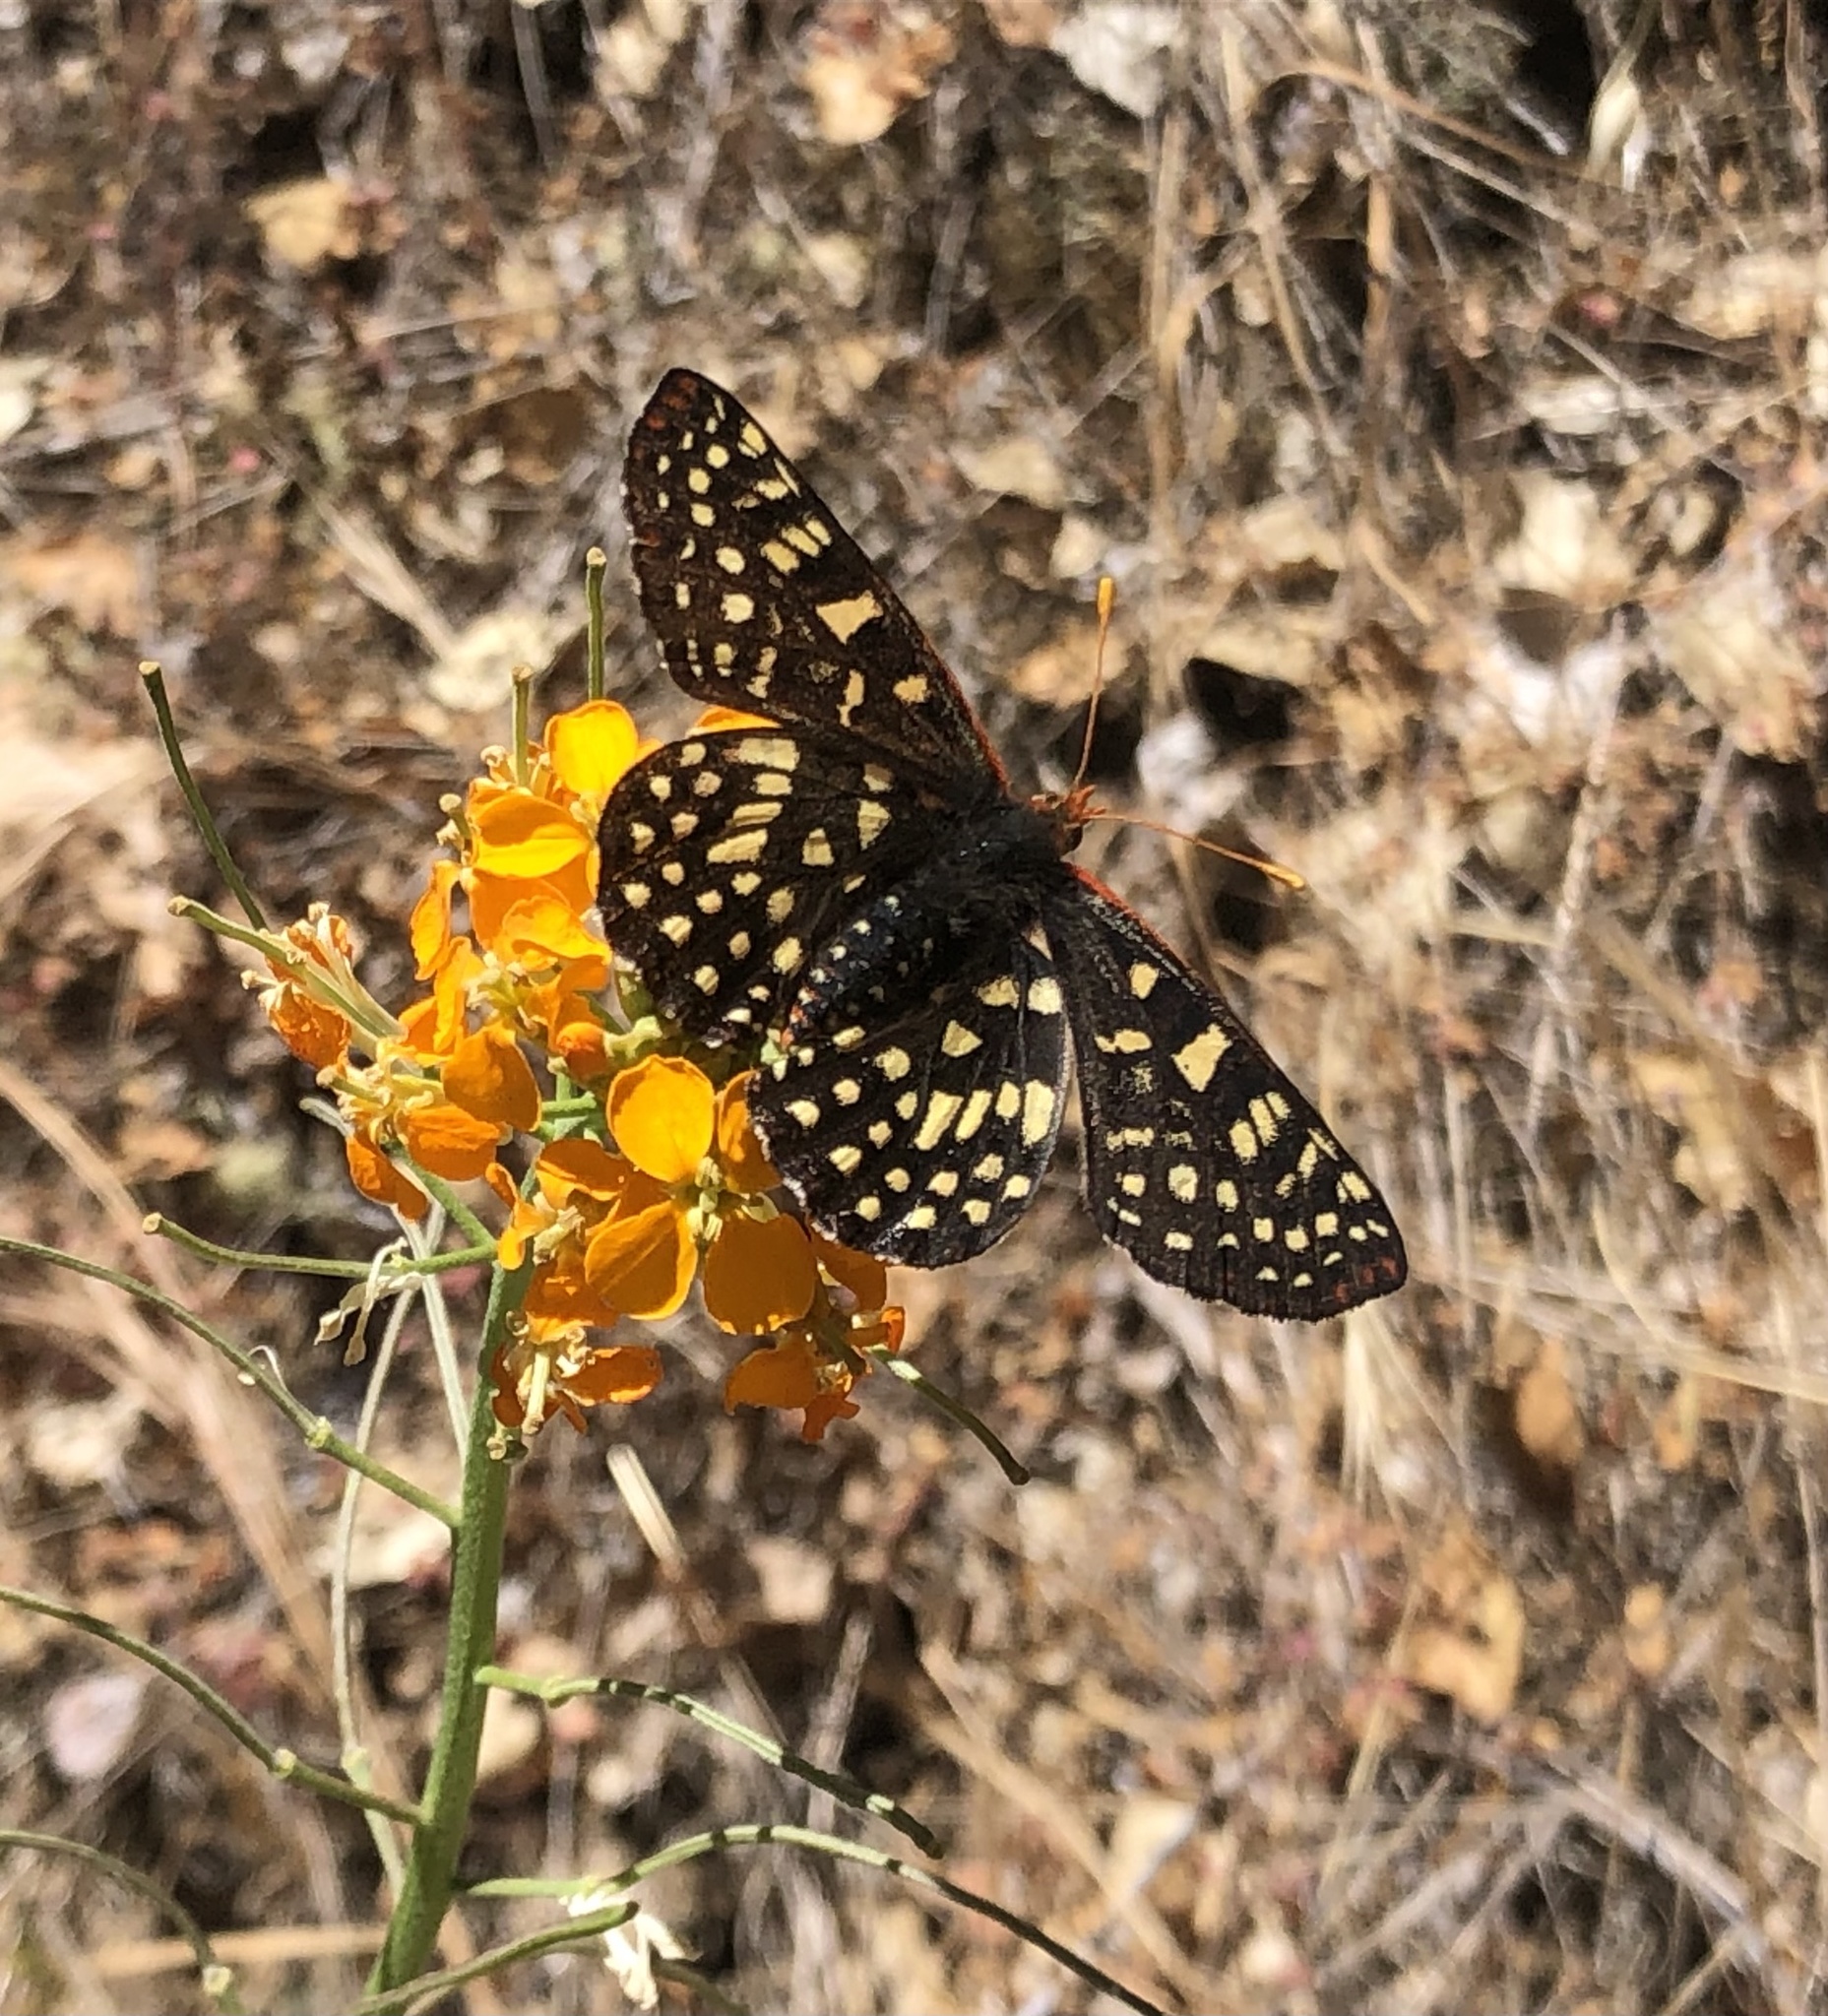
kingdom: Plantae
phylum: Tracheophyta
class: Magnoliopsida
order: Brassicales
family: Brassicaceae
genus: Erysimum
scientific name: Erysimum capitatum
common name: Western wallflower
